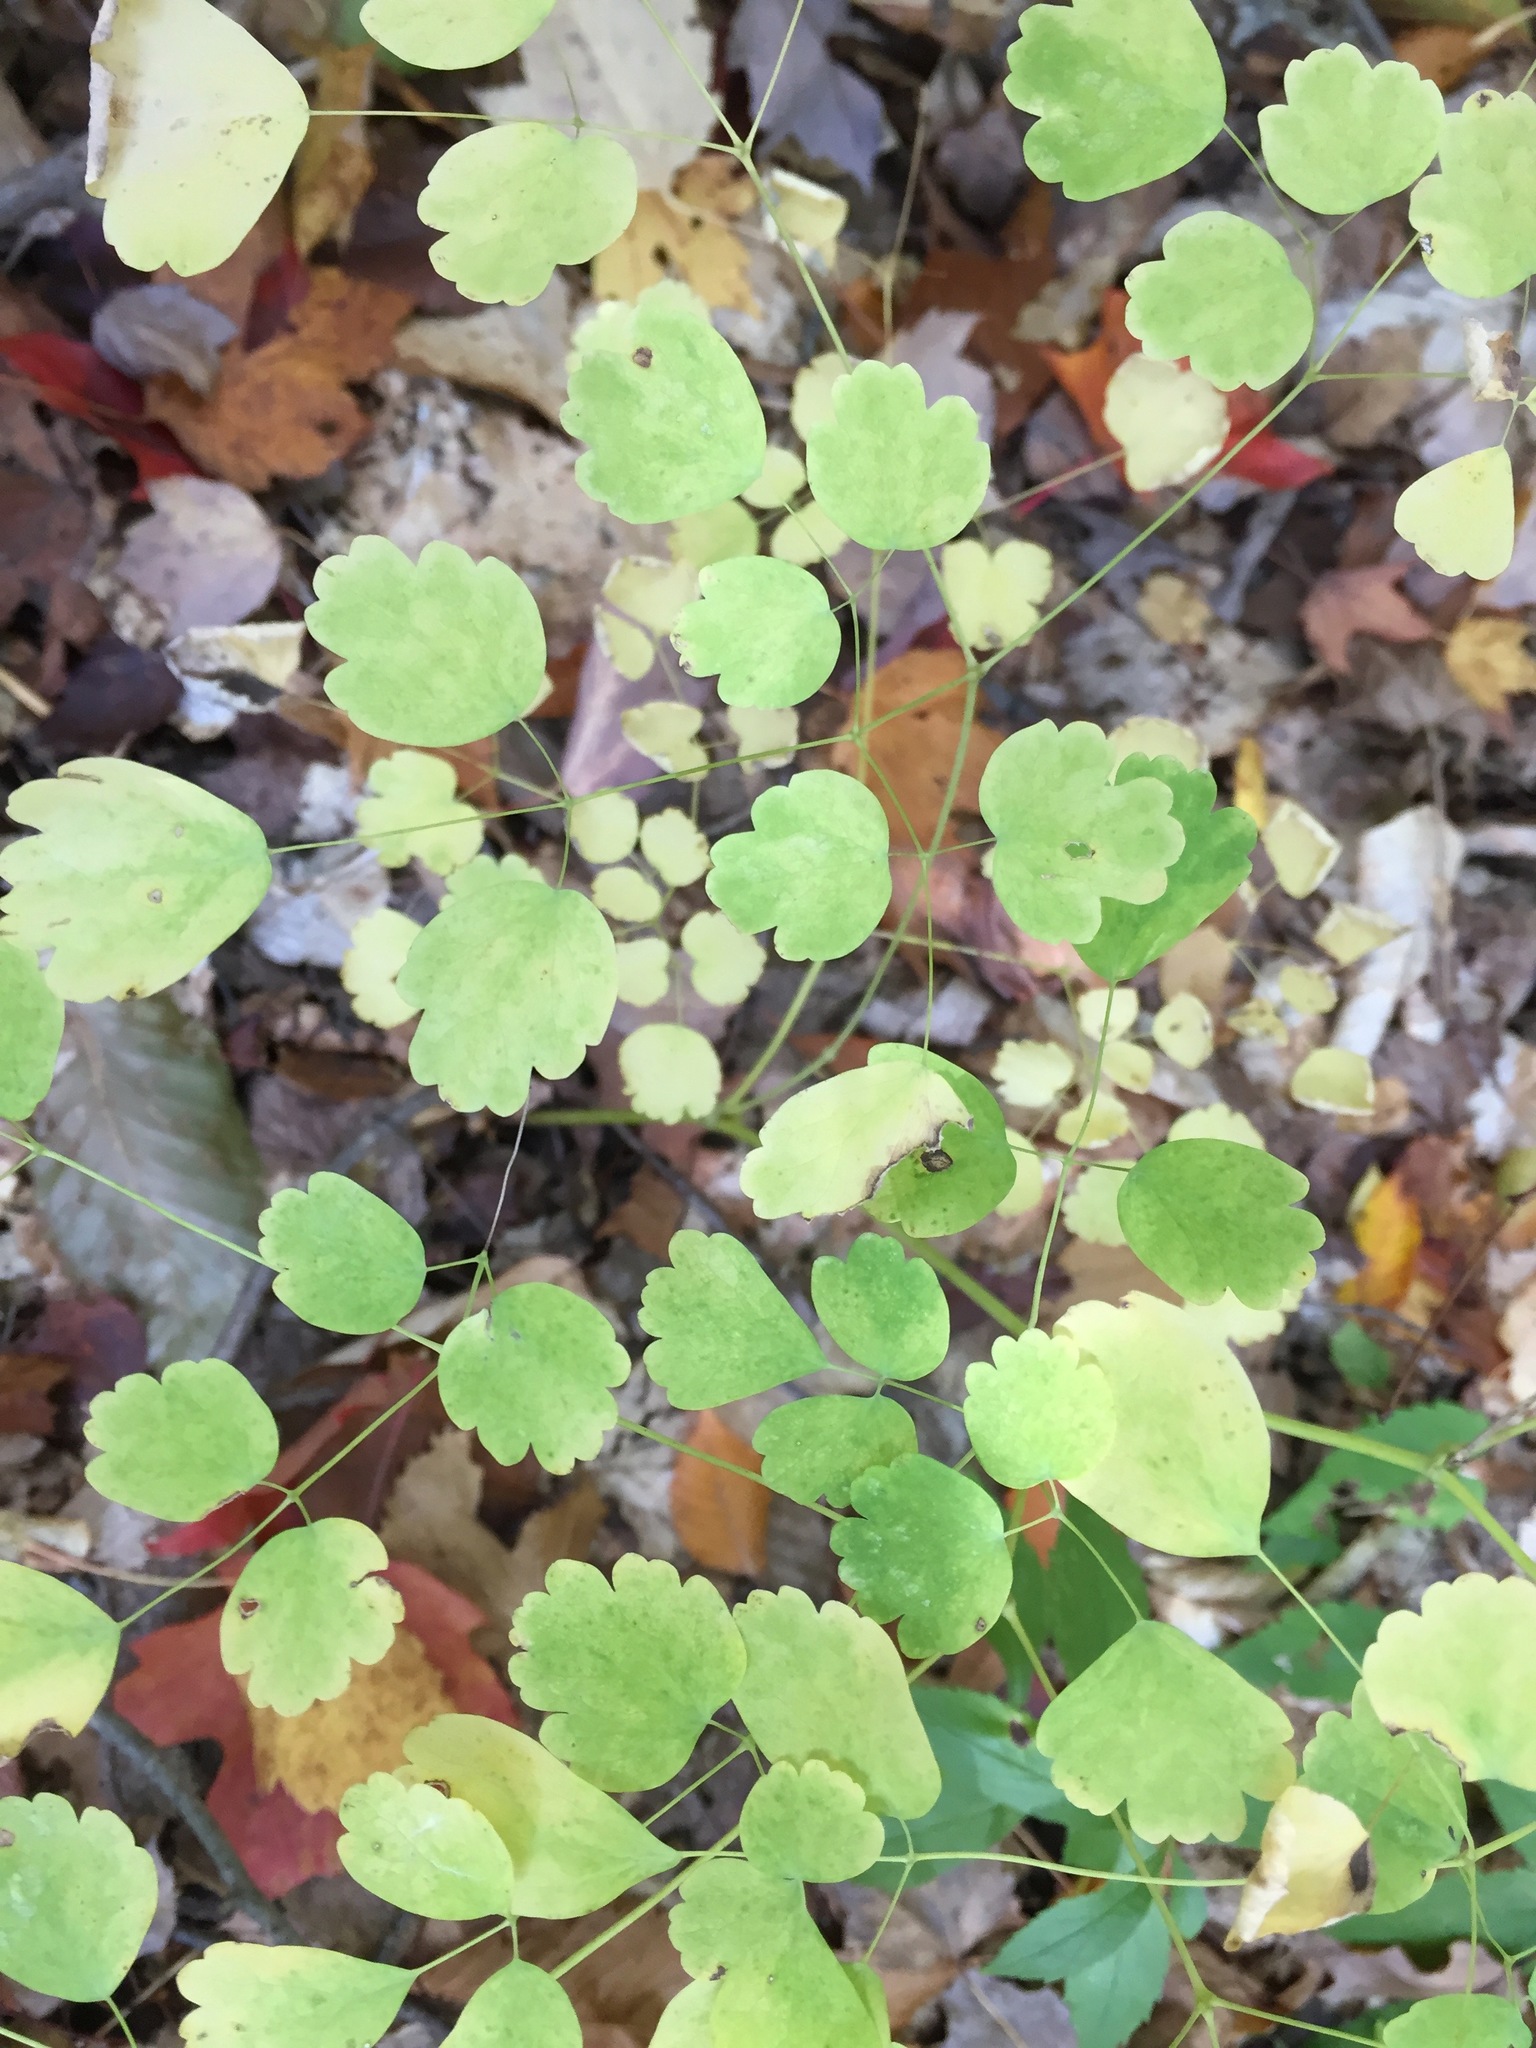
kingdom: Plantae
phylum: Tracheophyta
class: Magnoliopsida
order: Ranunculales
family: Ranunculaceae
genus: Thalictrum
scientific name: Thalictrum dioicum
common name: Early meadow-rue
